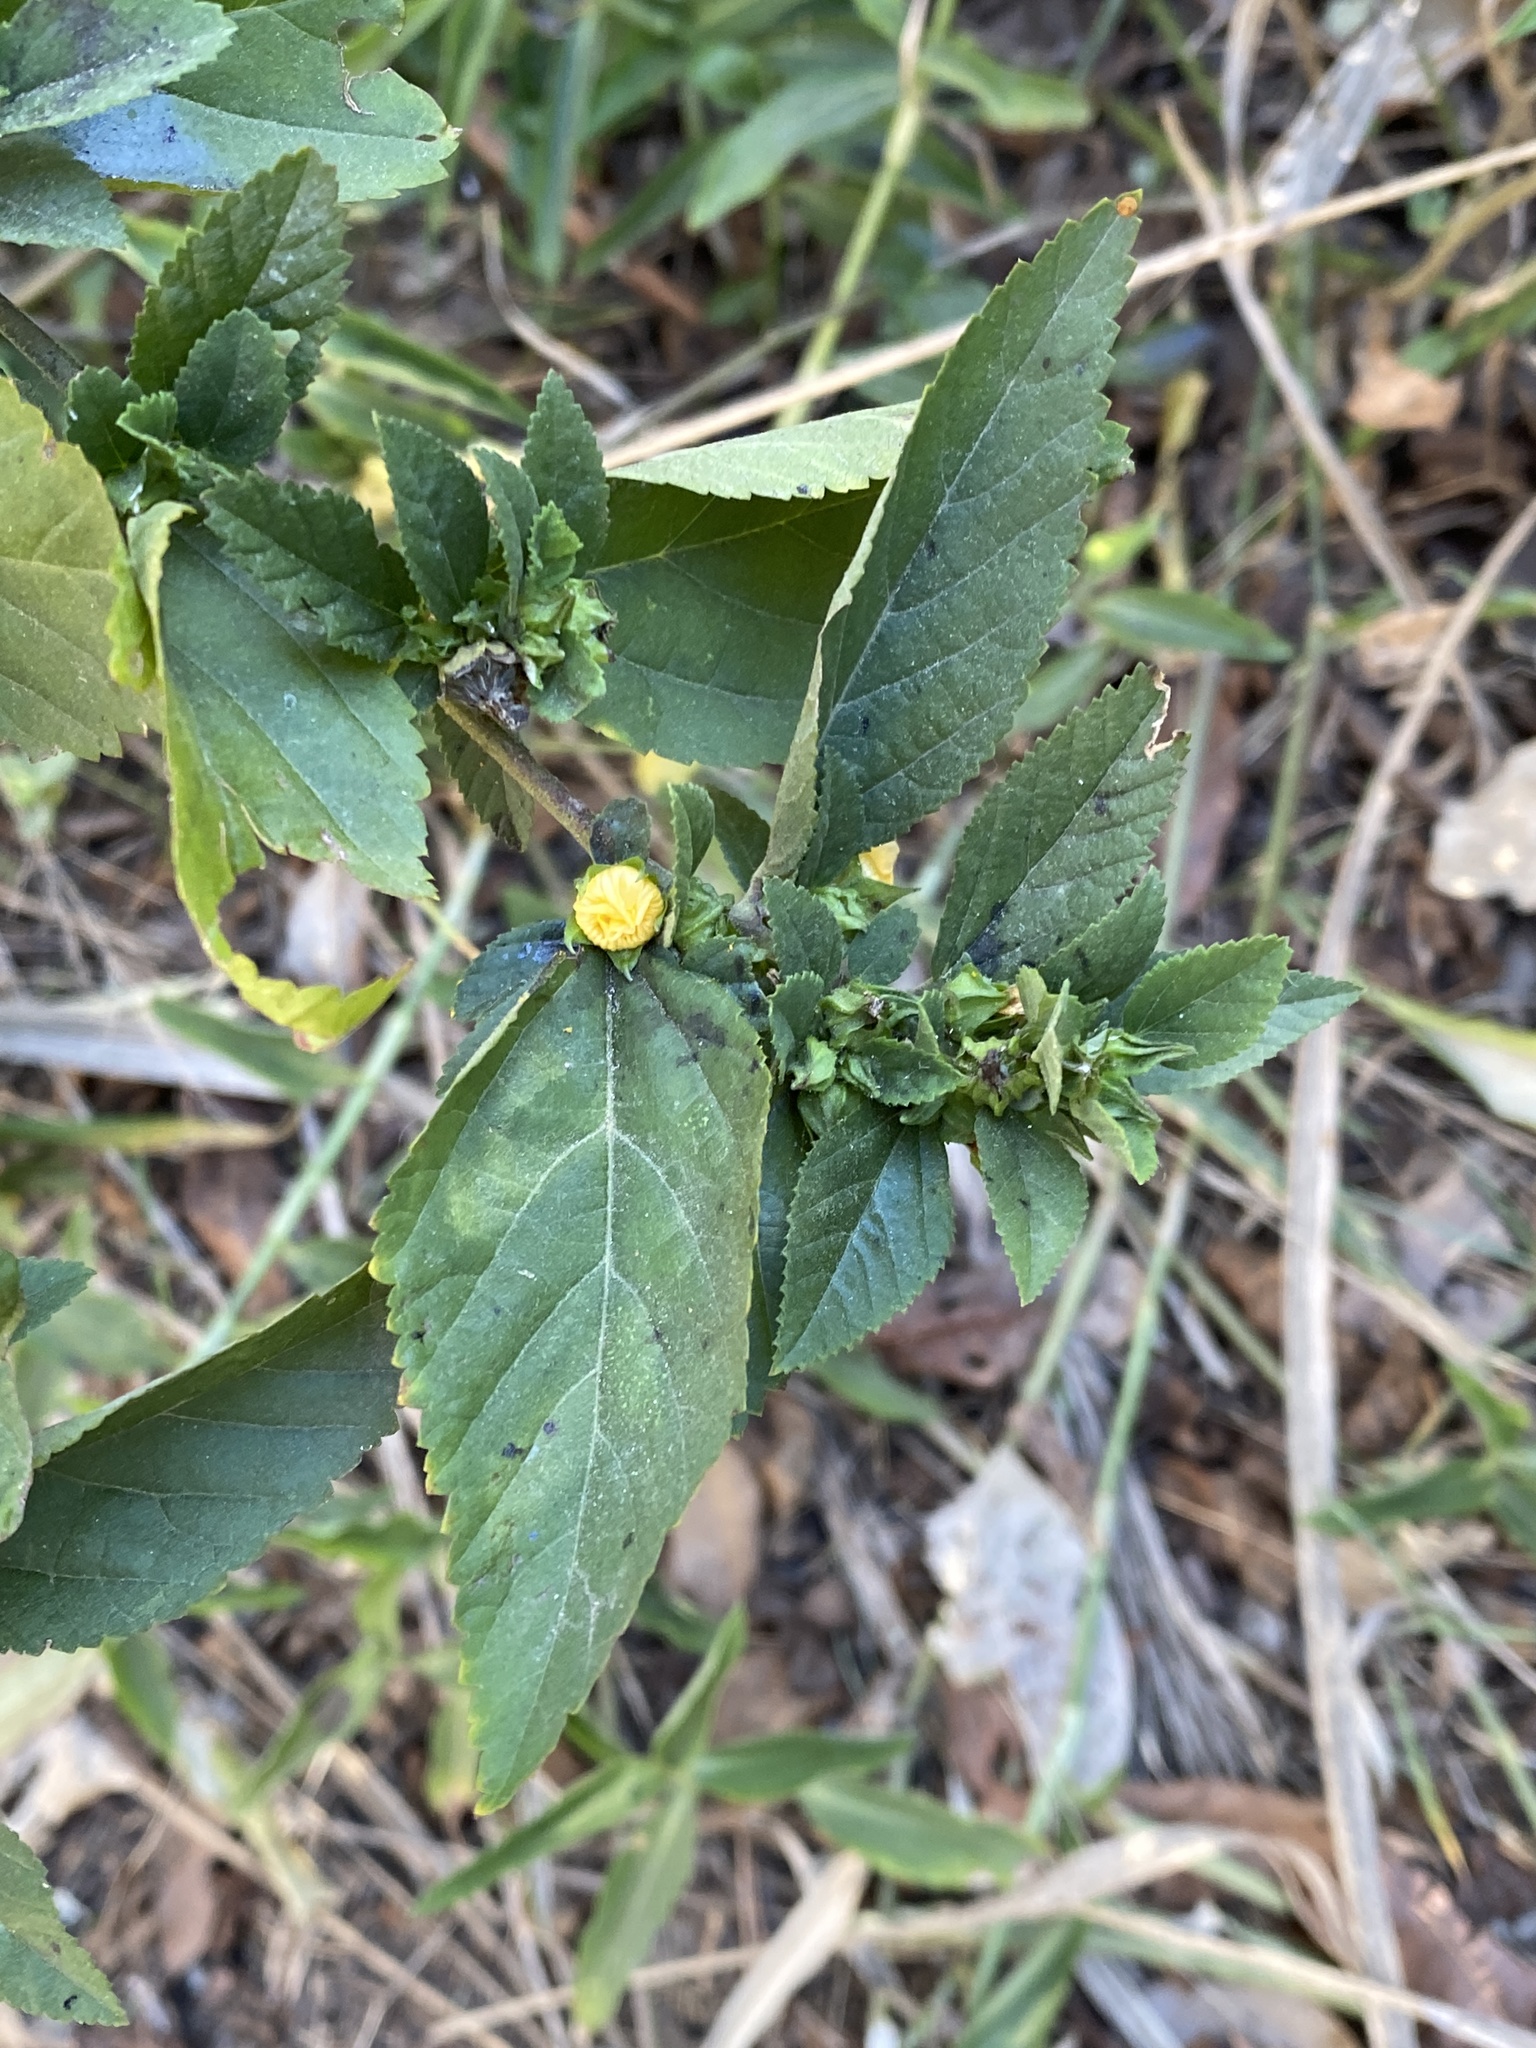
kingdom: Plantae
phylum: Tracheophyta
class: Magnoliopsida
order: Malvales
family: Malvaceae
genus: Sida
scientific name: Sida rhombifolia
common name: Queensland-hemp
